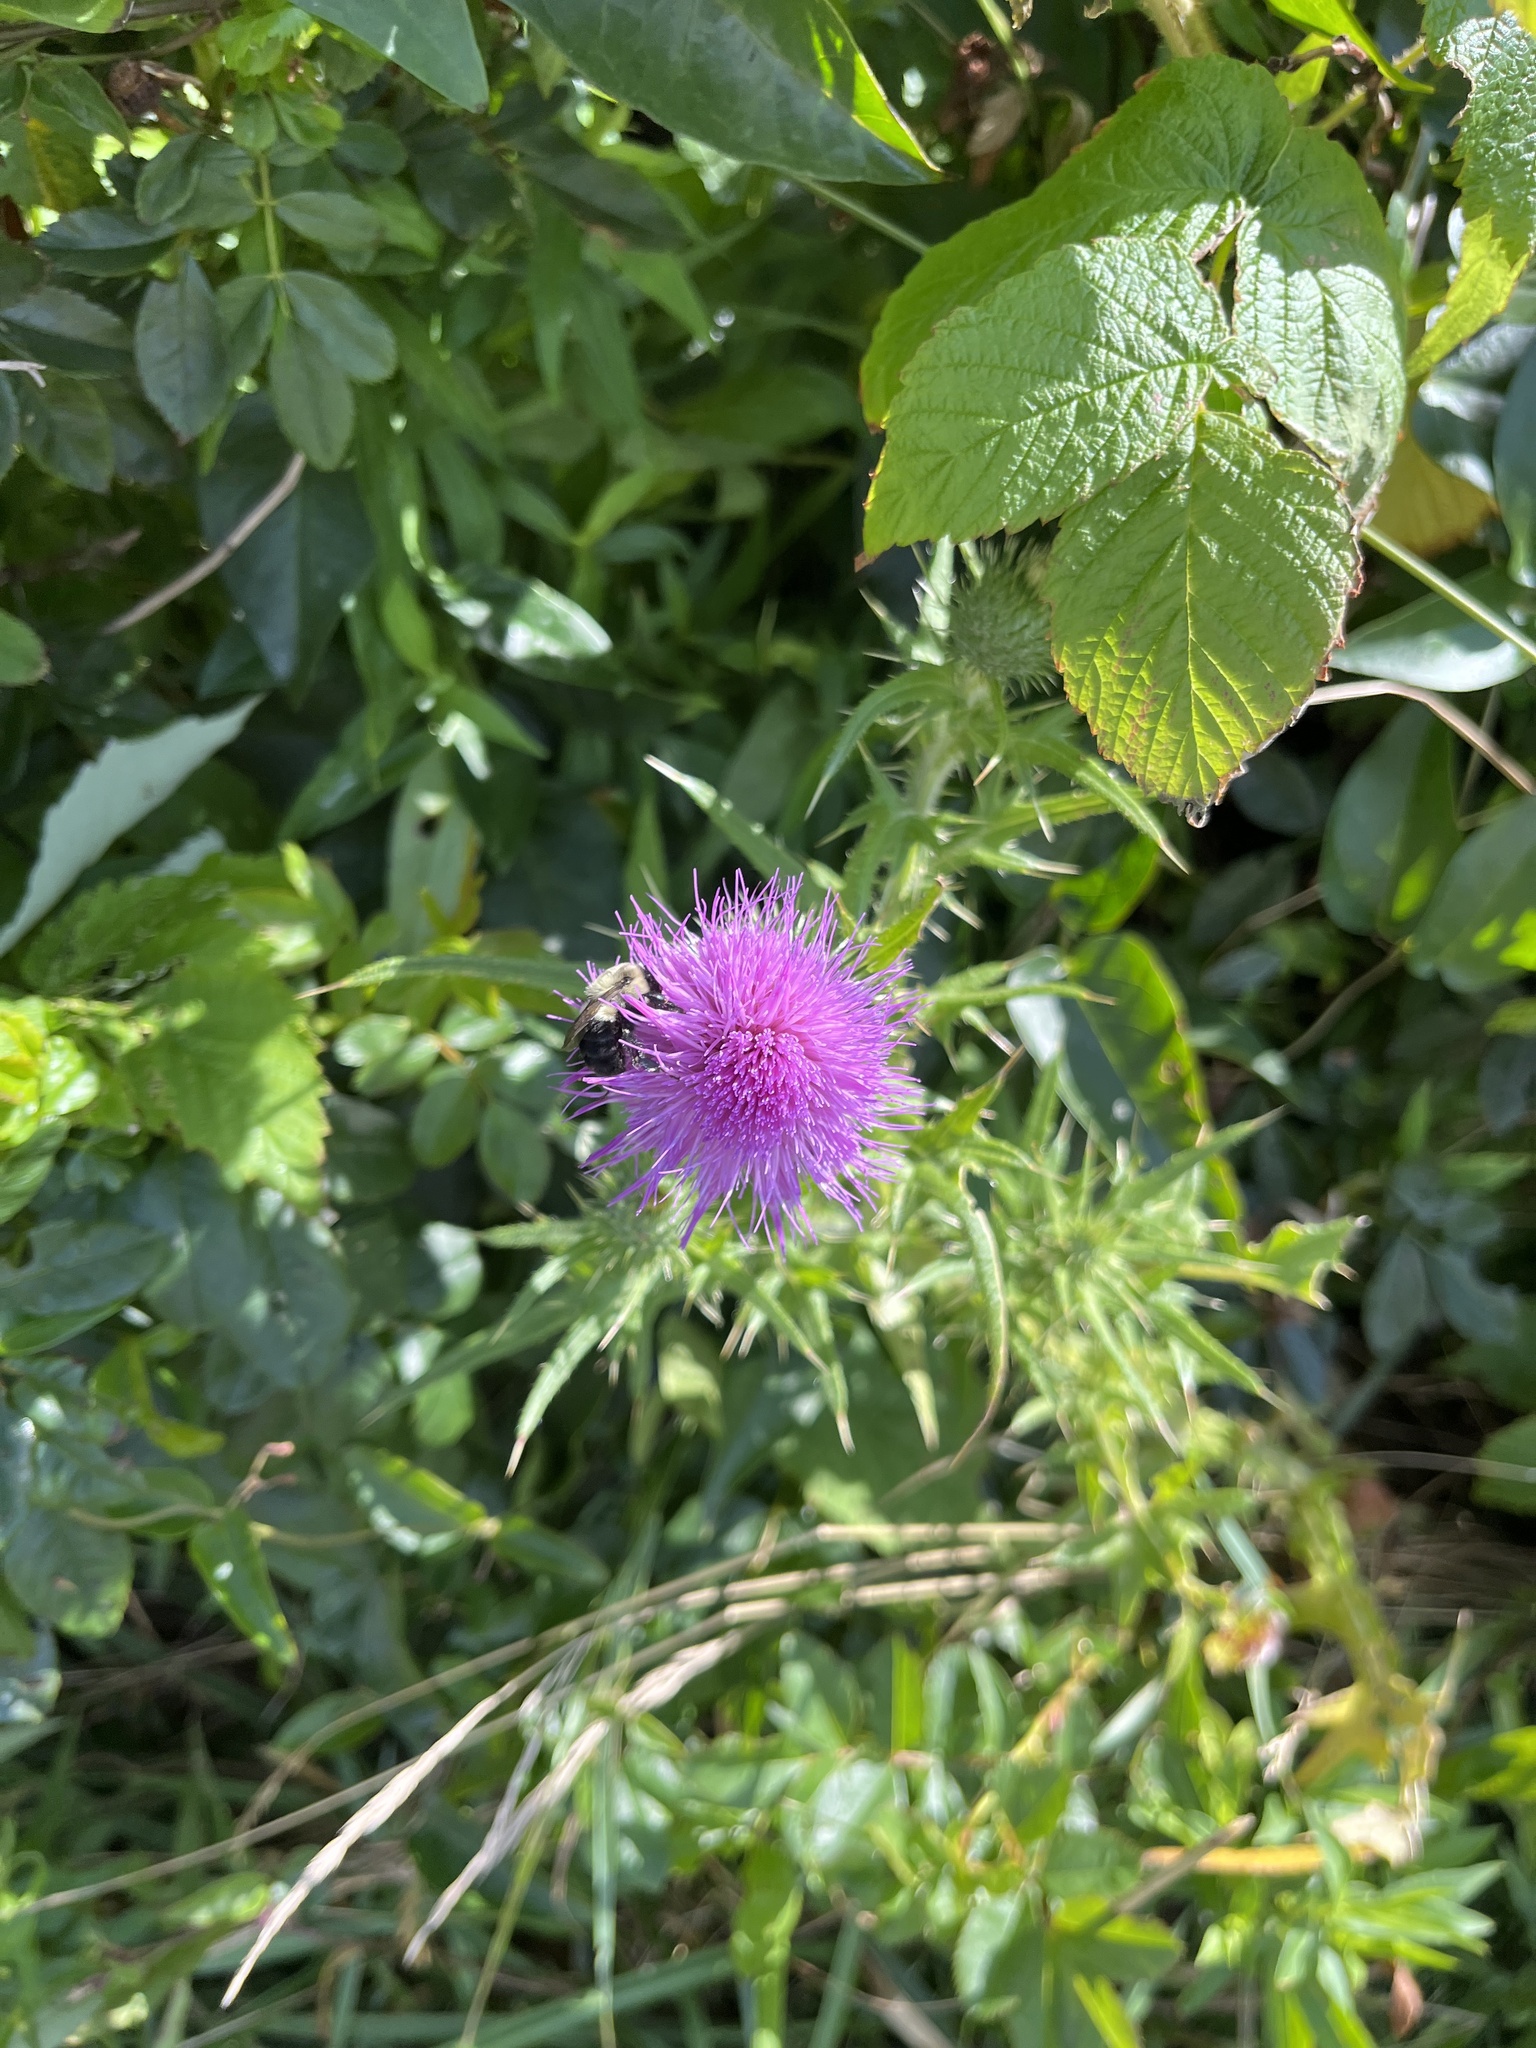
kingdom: Plantae
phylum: Tracheophyta
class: Magnoliopsida
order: Asterales
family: Asteraceae
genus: Cirsium
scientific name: Cirsium vulgare
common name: Bull thistle
